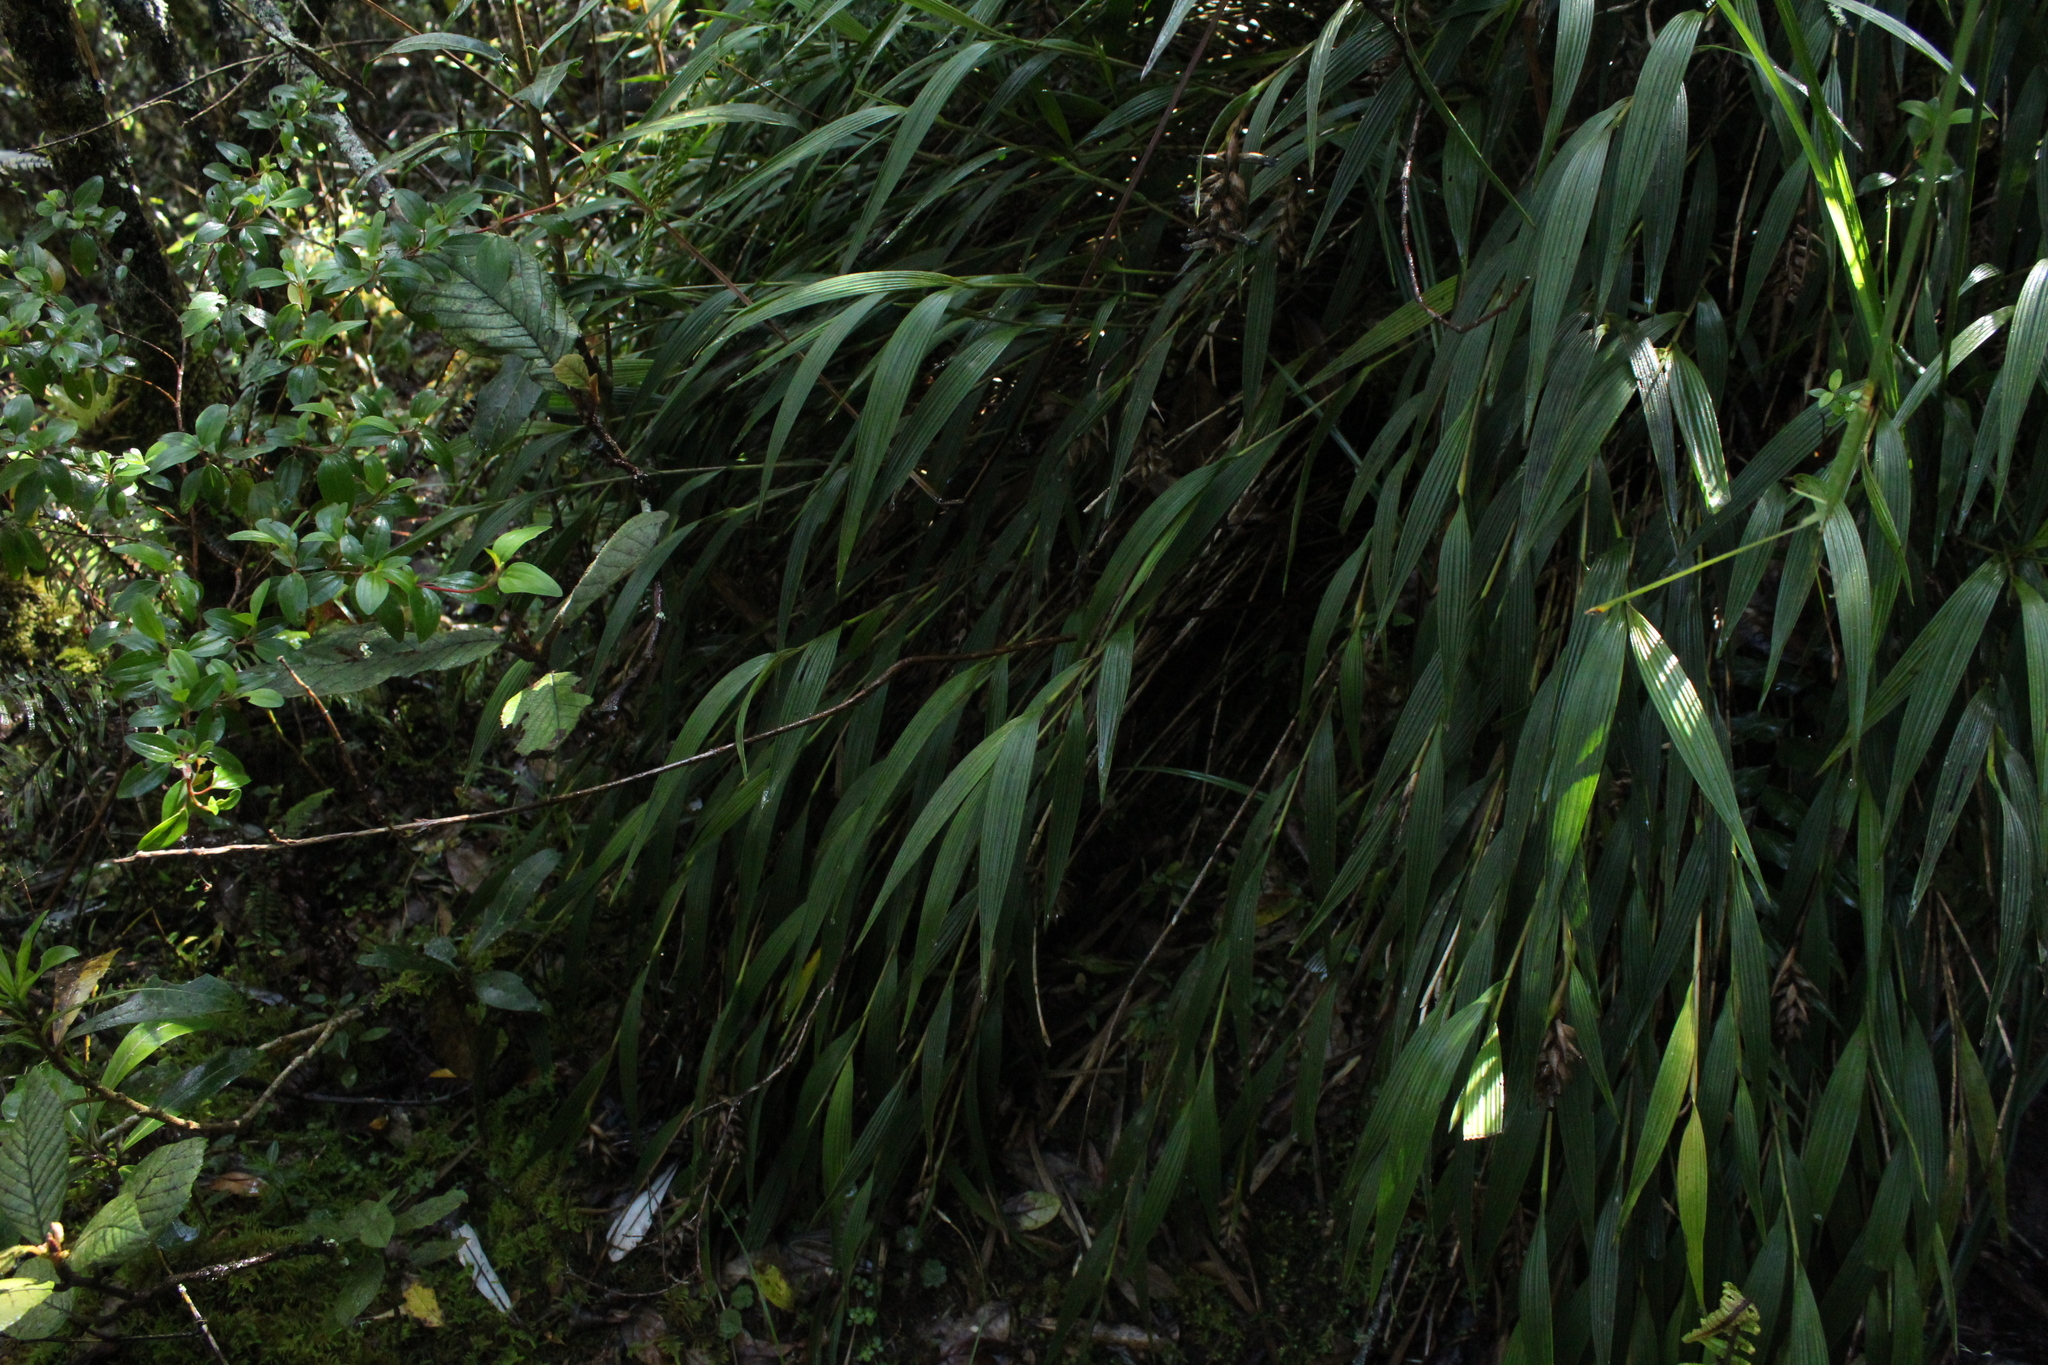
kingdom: Plantae
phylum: Tracheophyta
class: Liliopsida
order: Asparagales
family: Orchidaceae
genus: Elleanthus
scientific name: Elleanthus
